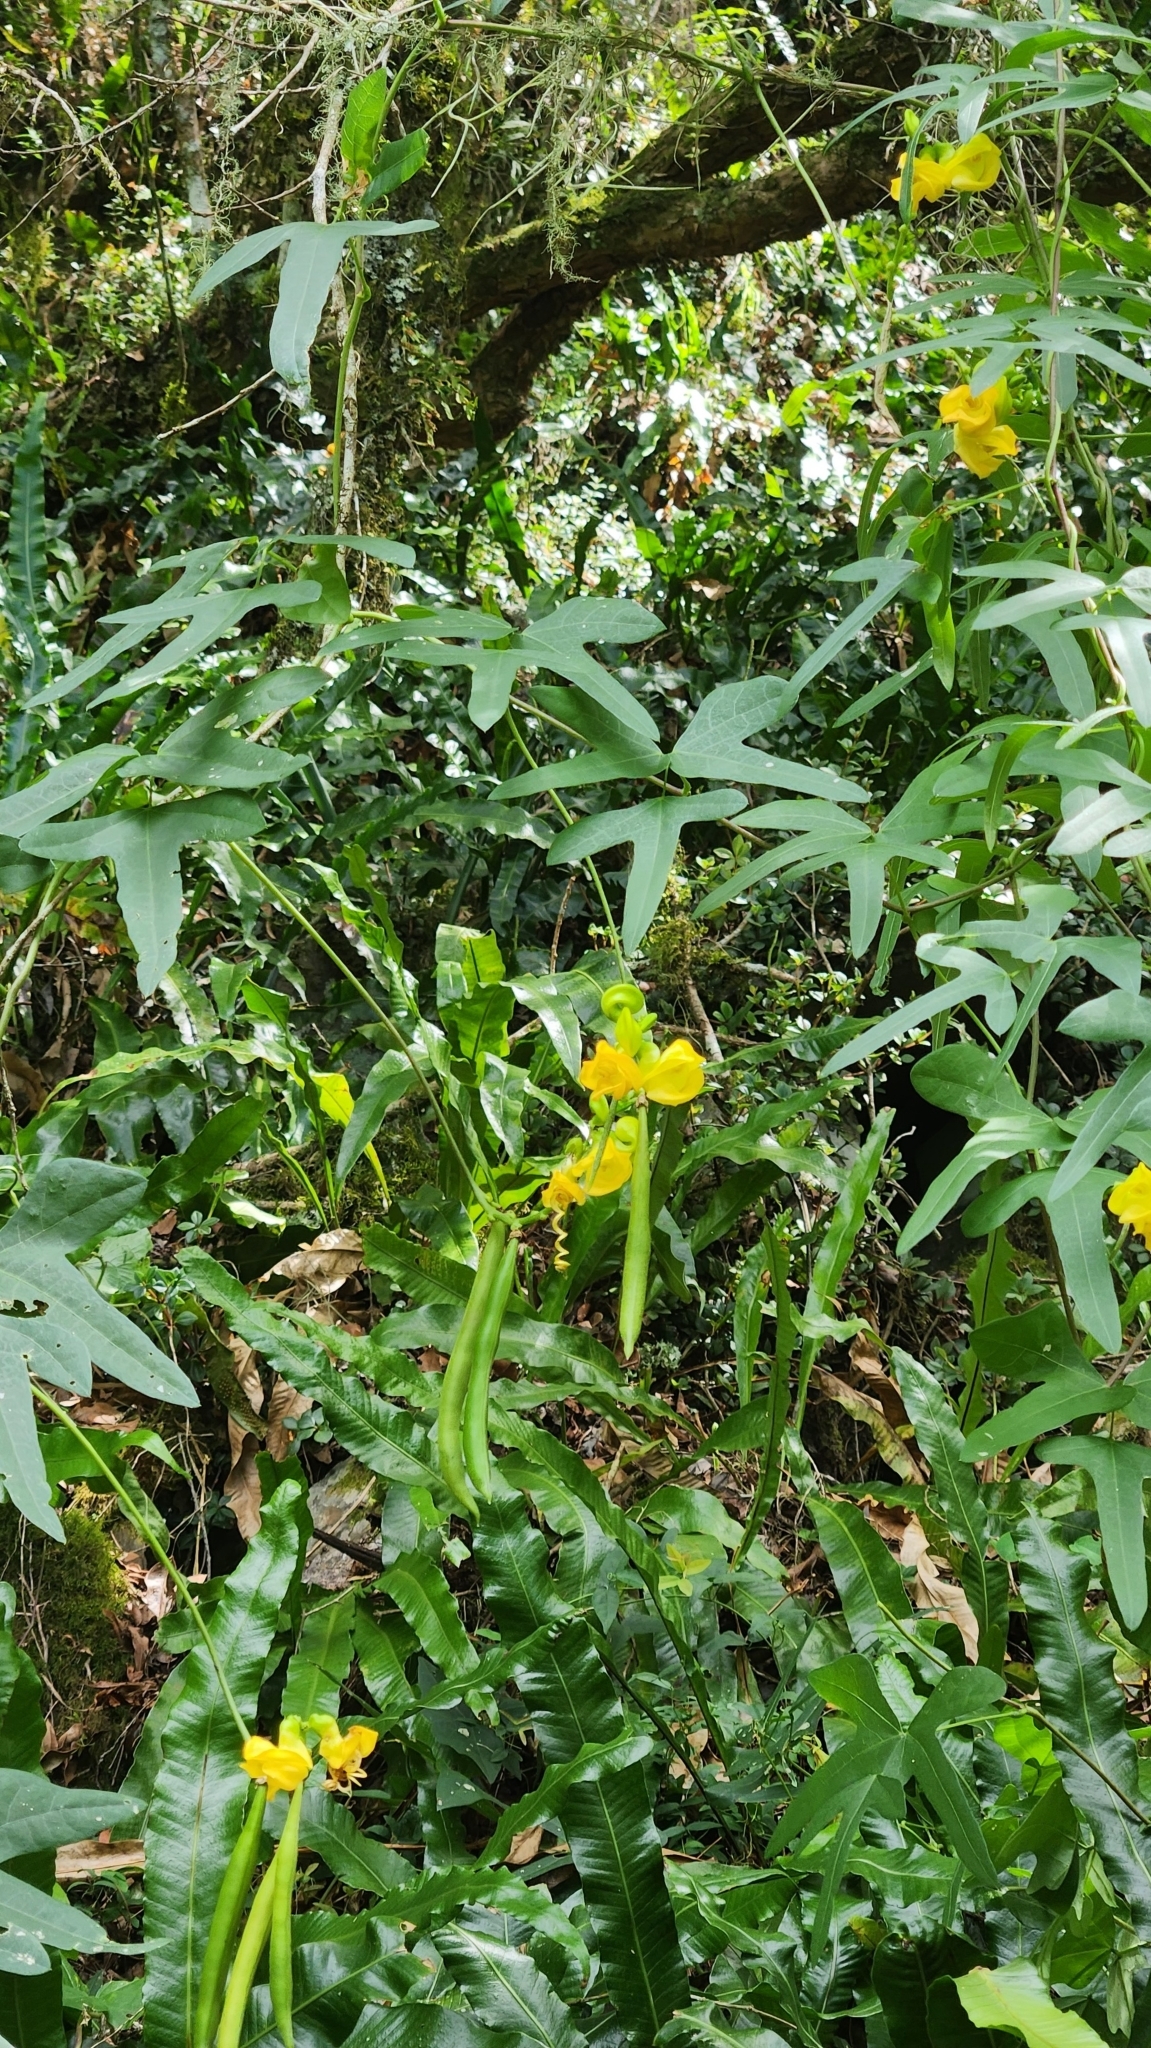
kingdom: Plantae
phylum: Tracheophyta
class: Magnoliopsida
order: Fabales
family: Fabaceae
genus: Helicotropis
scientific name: Helicotropis hookeri
